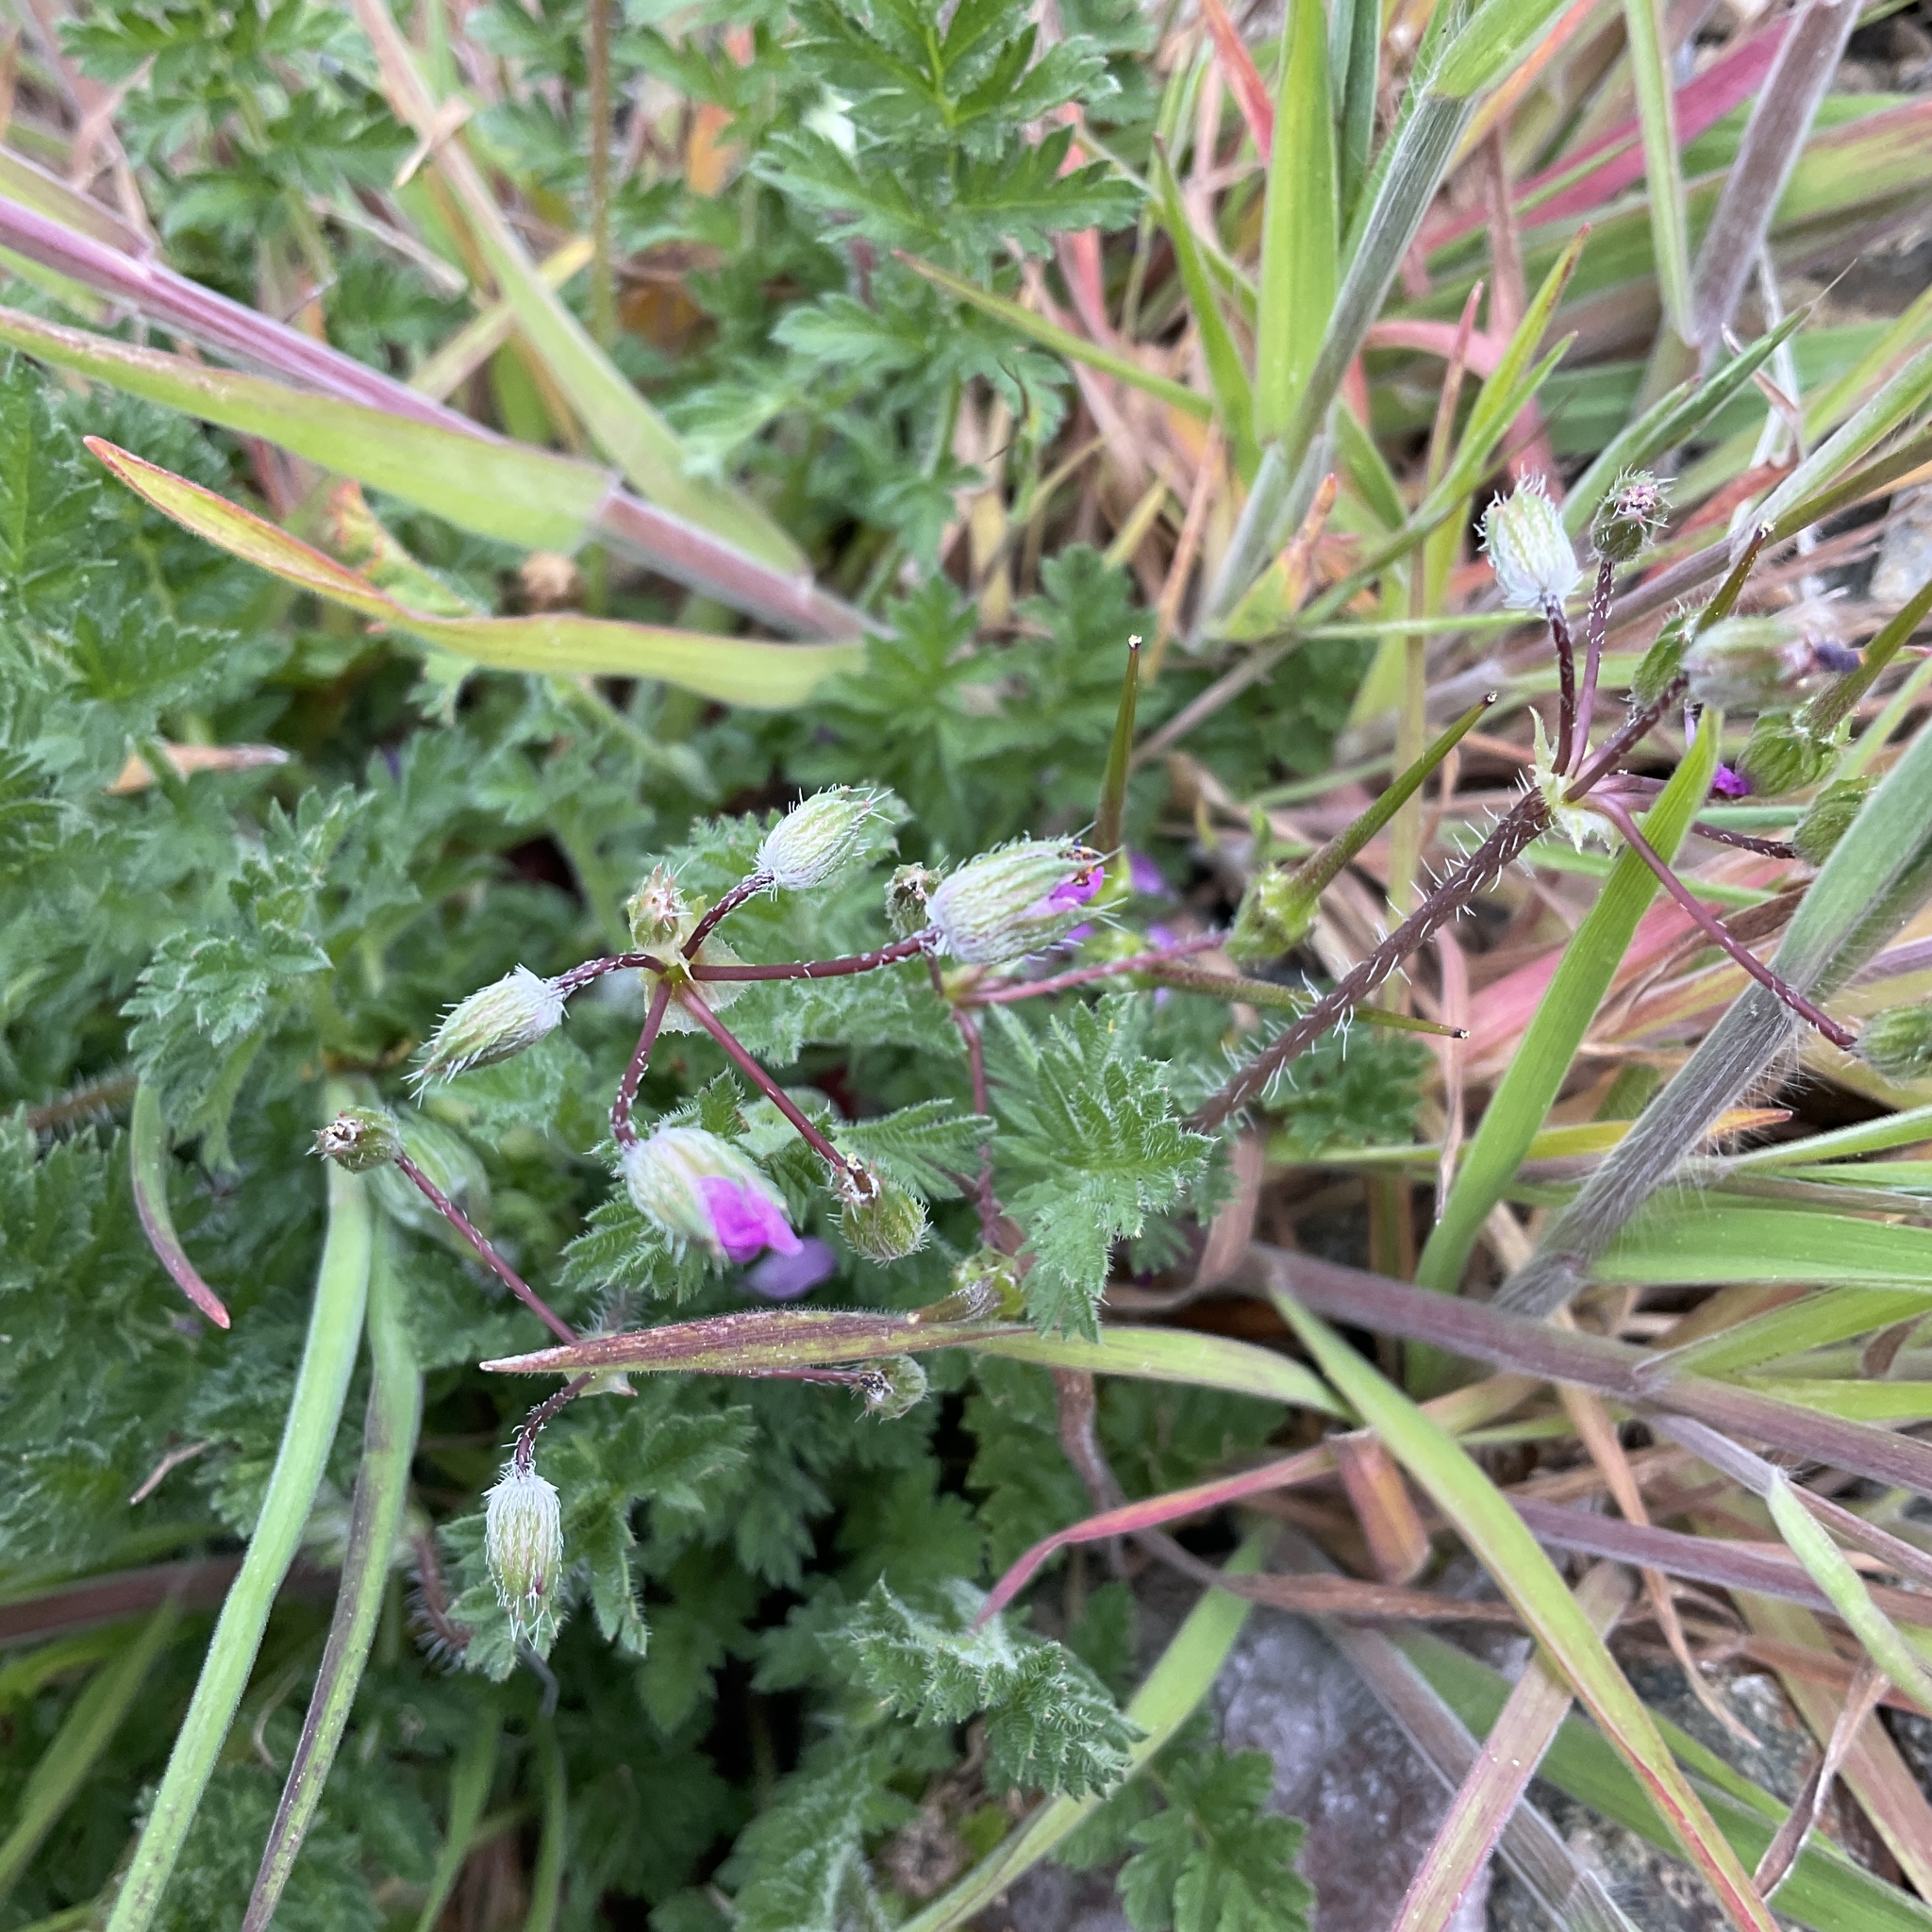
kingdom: Plantae
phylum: Tracheophyta
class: Magnoliopsida
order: Geraniales
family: Geraniaceae
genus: Erodium
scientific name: Erodium cicutarium
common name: Common stork's-bill
